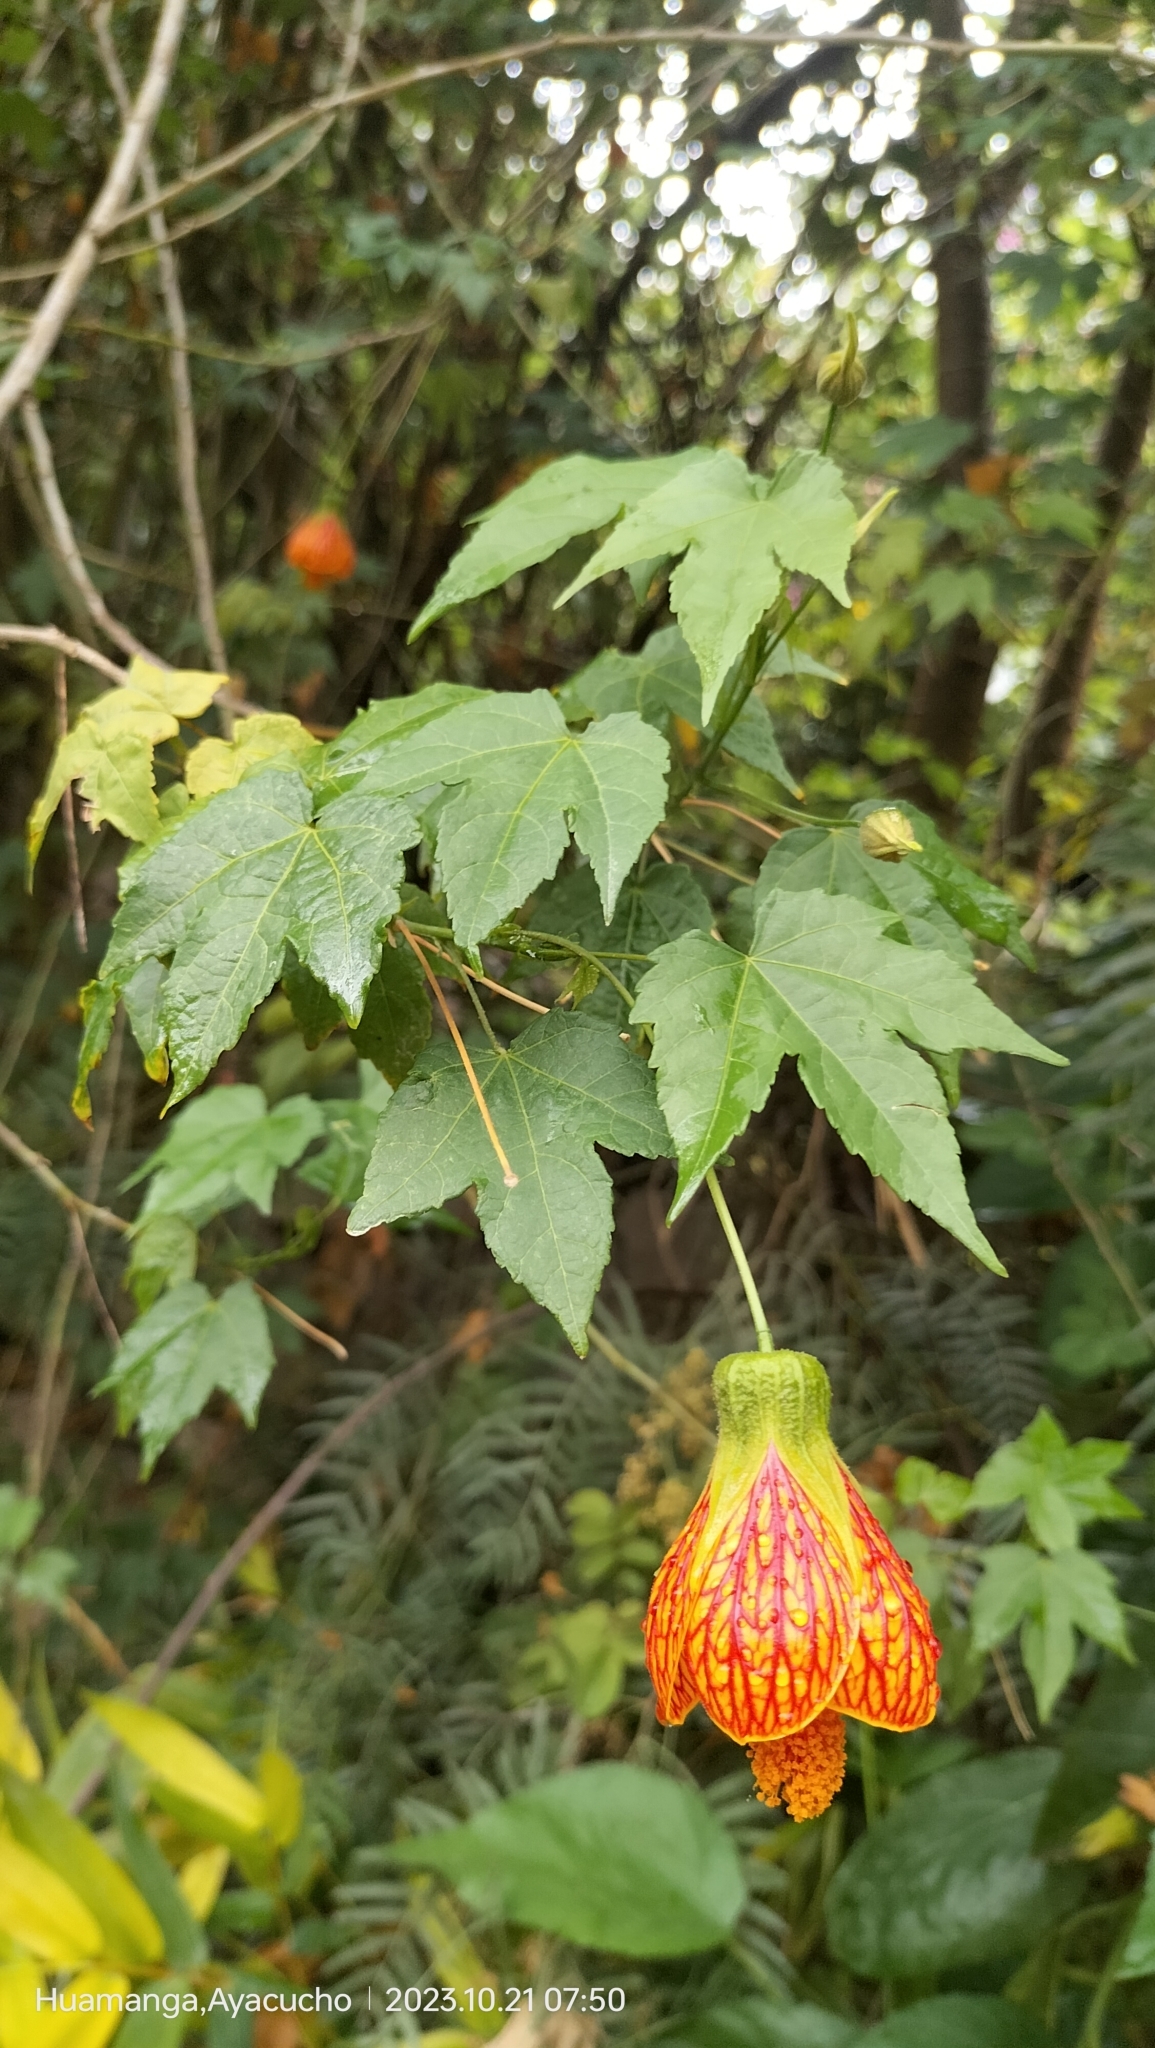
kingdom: Plantae
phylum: Tracheophyta
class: Magnoliopsida
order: Malvales
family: Malvaceae
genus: Callianthe
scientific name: Callianthe picta
